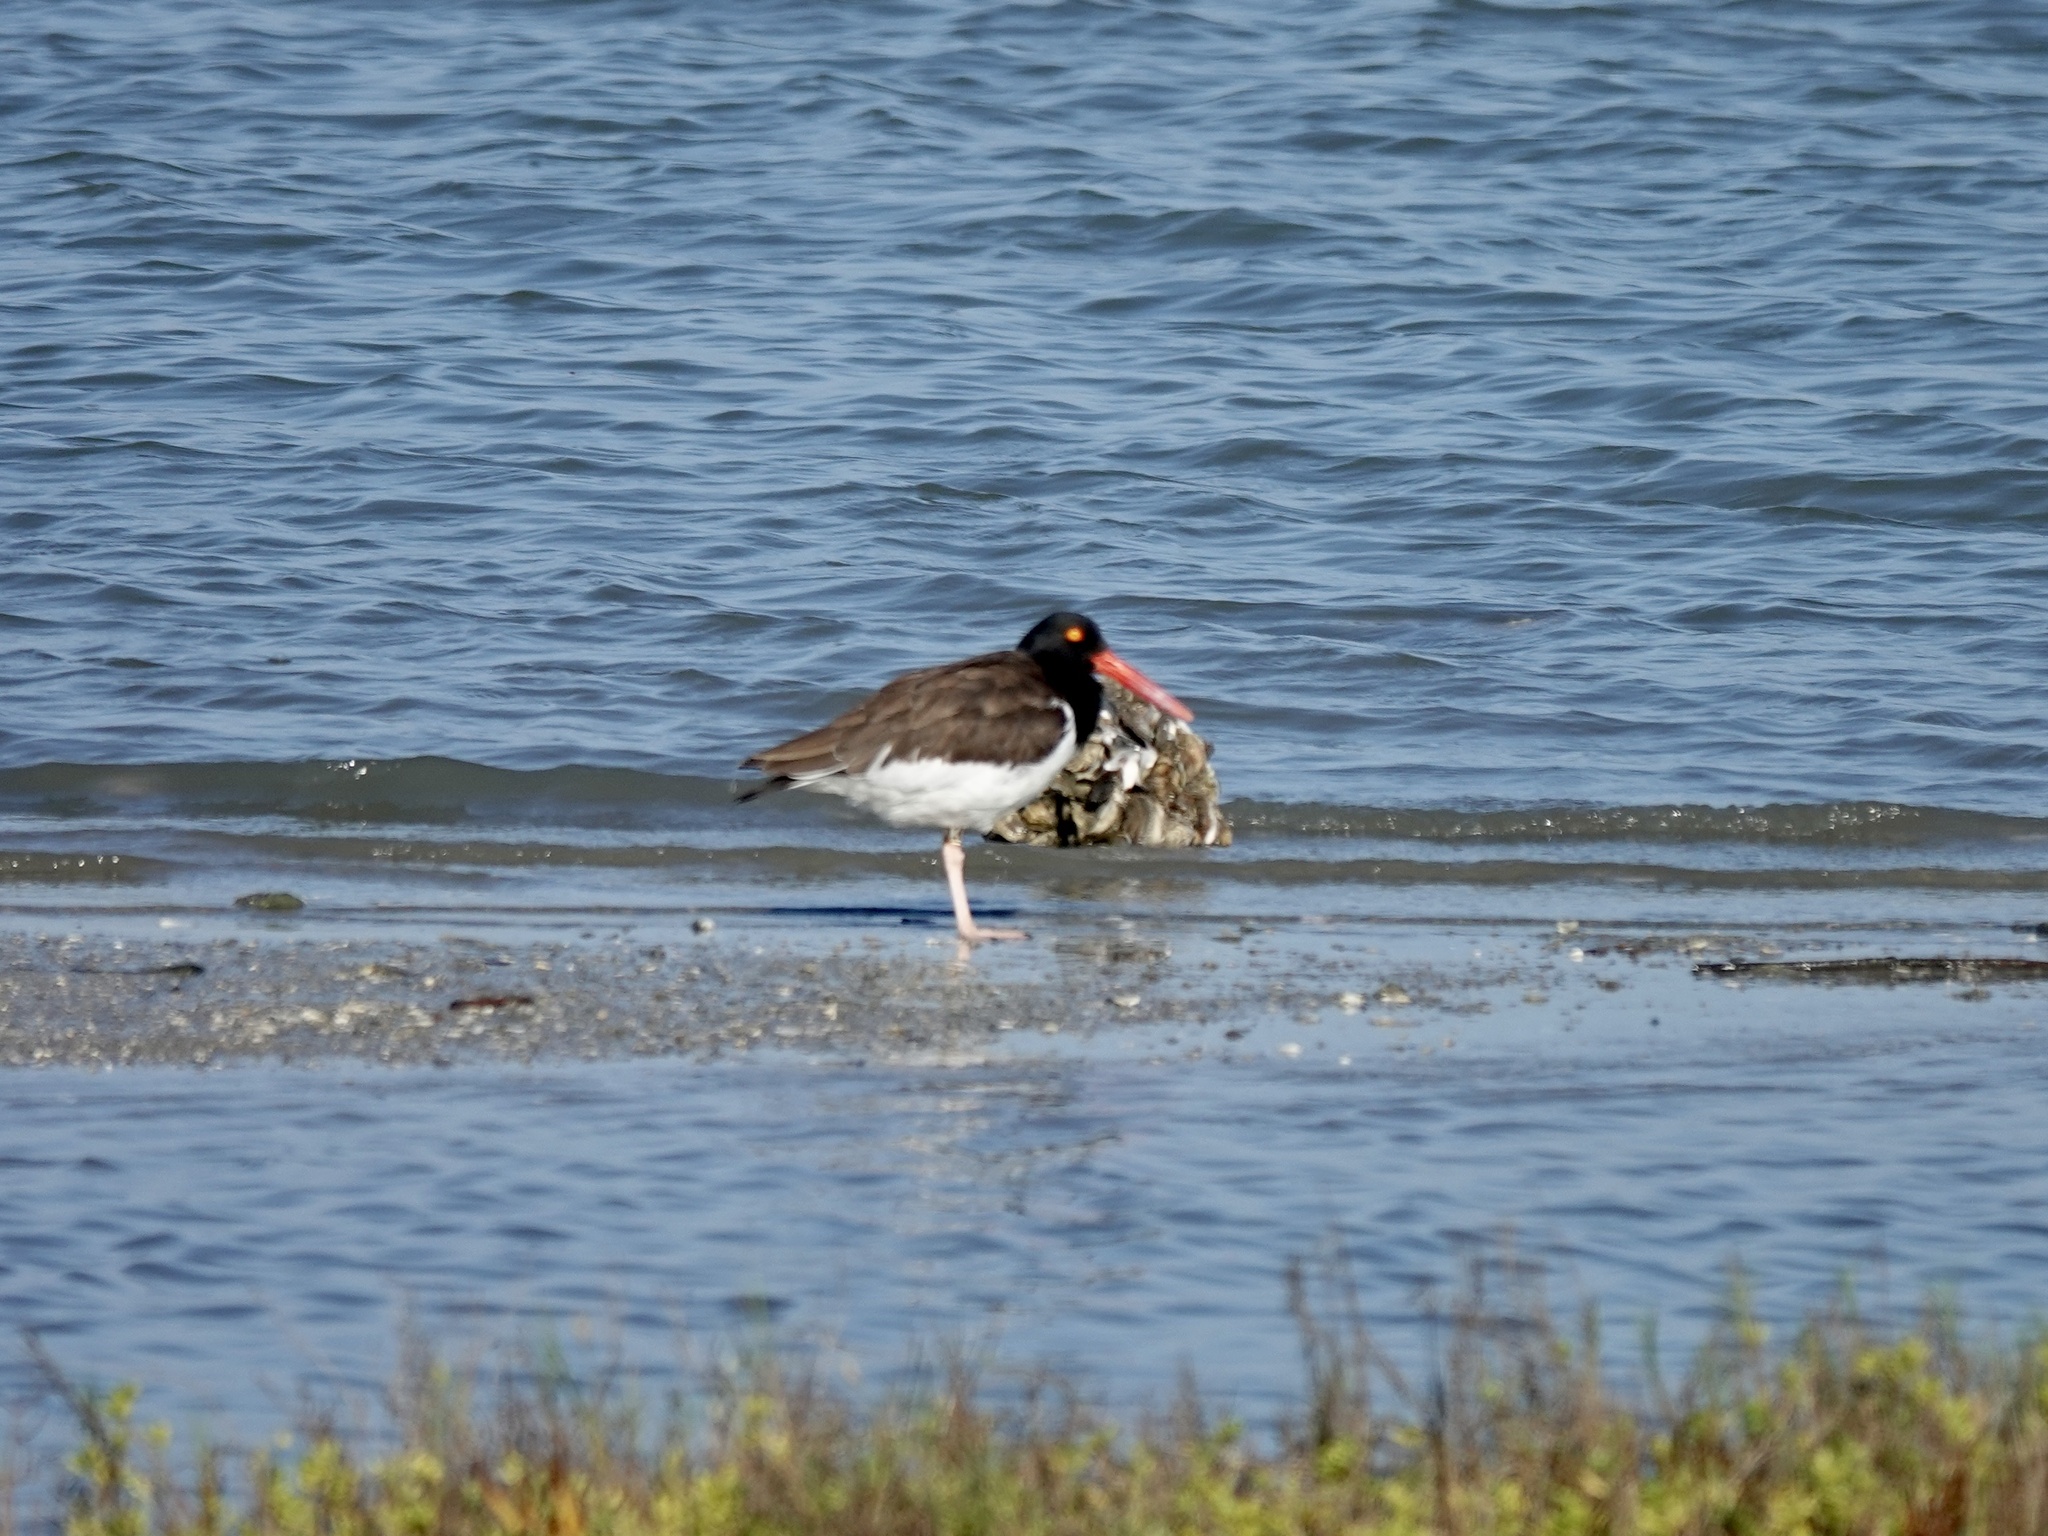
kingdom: Animalia
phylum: Chordata
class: Aves
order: Charadriiformes
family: Haematopodidae
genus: Haematopus
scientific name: Haematopus palliatus
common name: American oystercatcher
